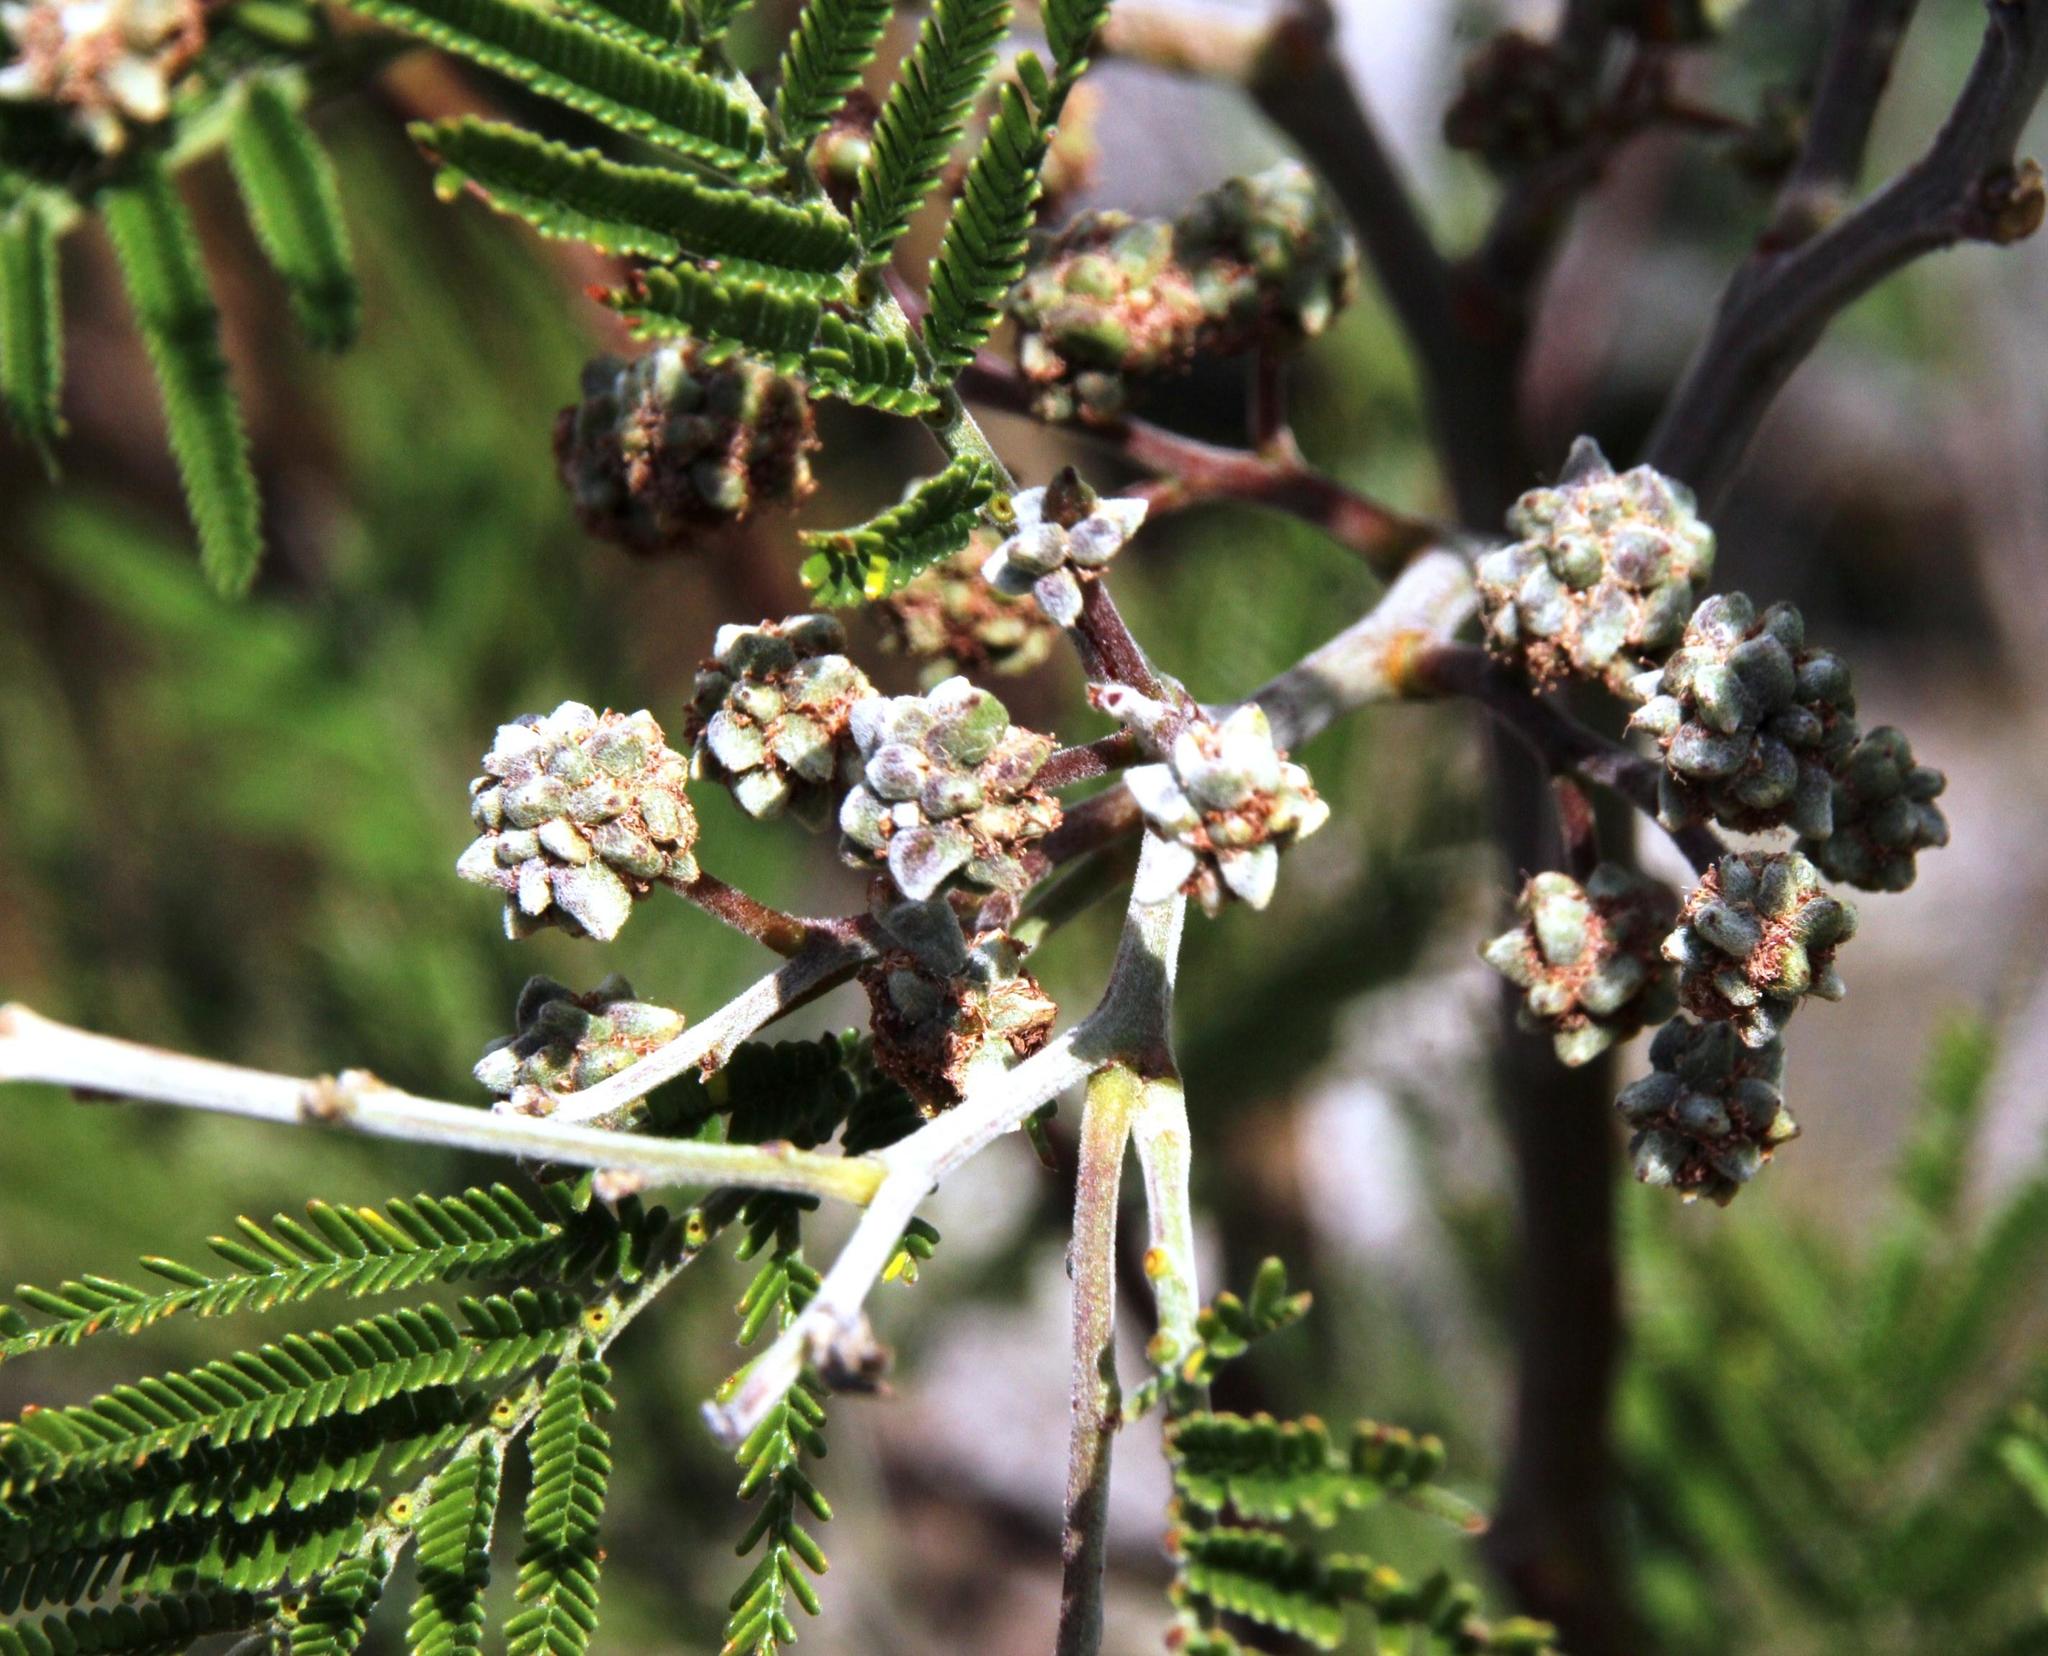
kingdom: Animalia
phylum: Arthropoda
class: Insecta
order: Diptera
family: Cecidomyiidae
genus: Dasineura
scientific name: Dasineura rubiformis
